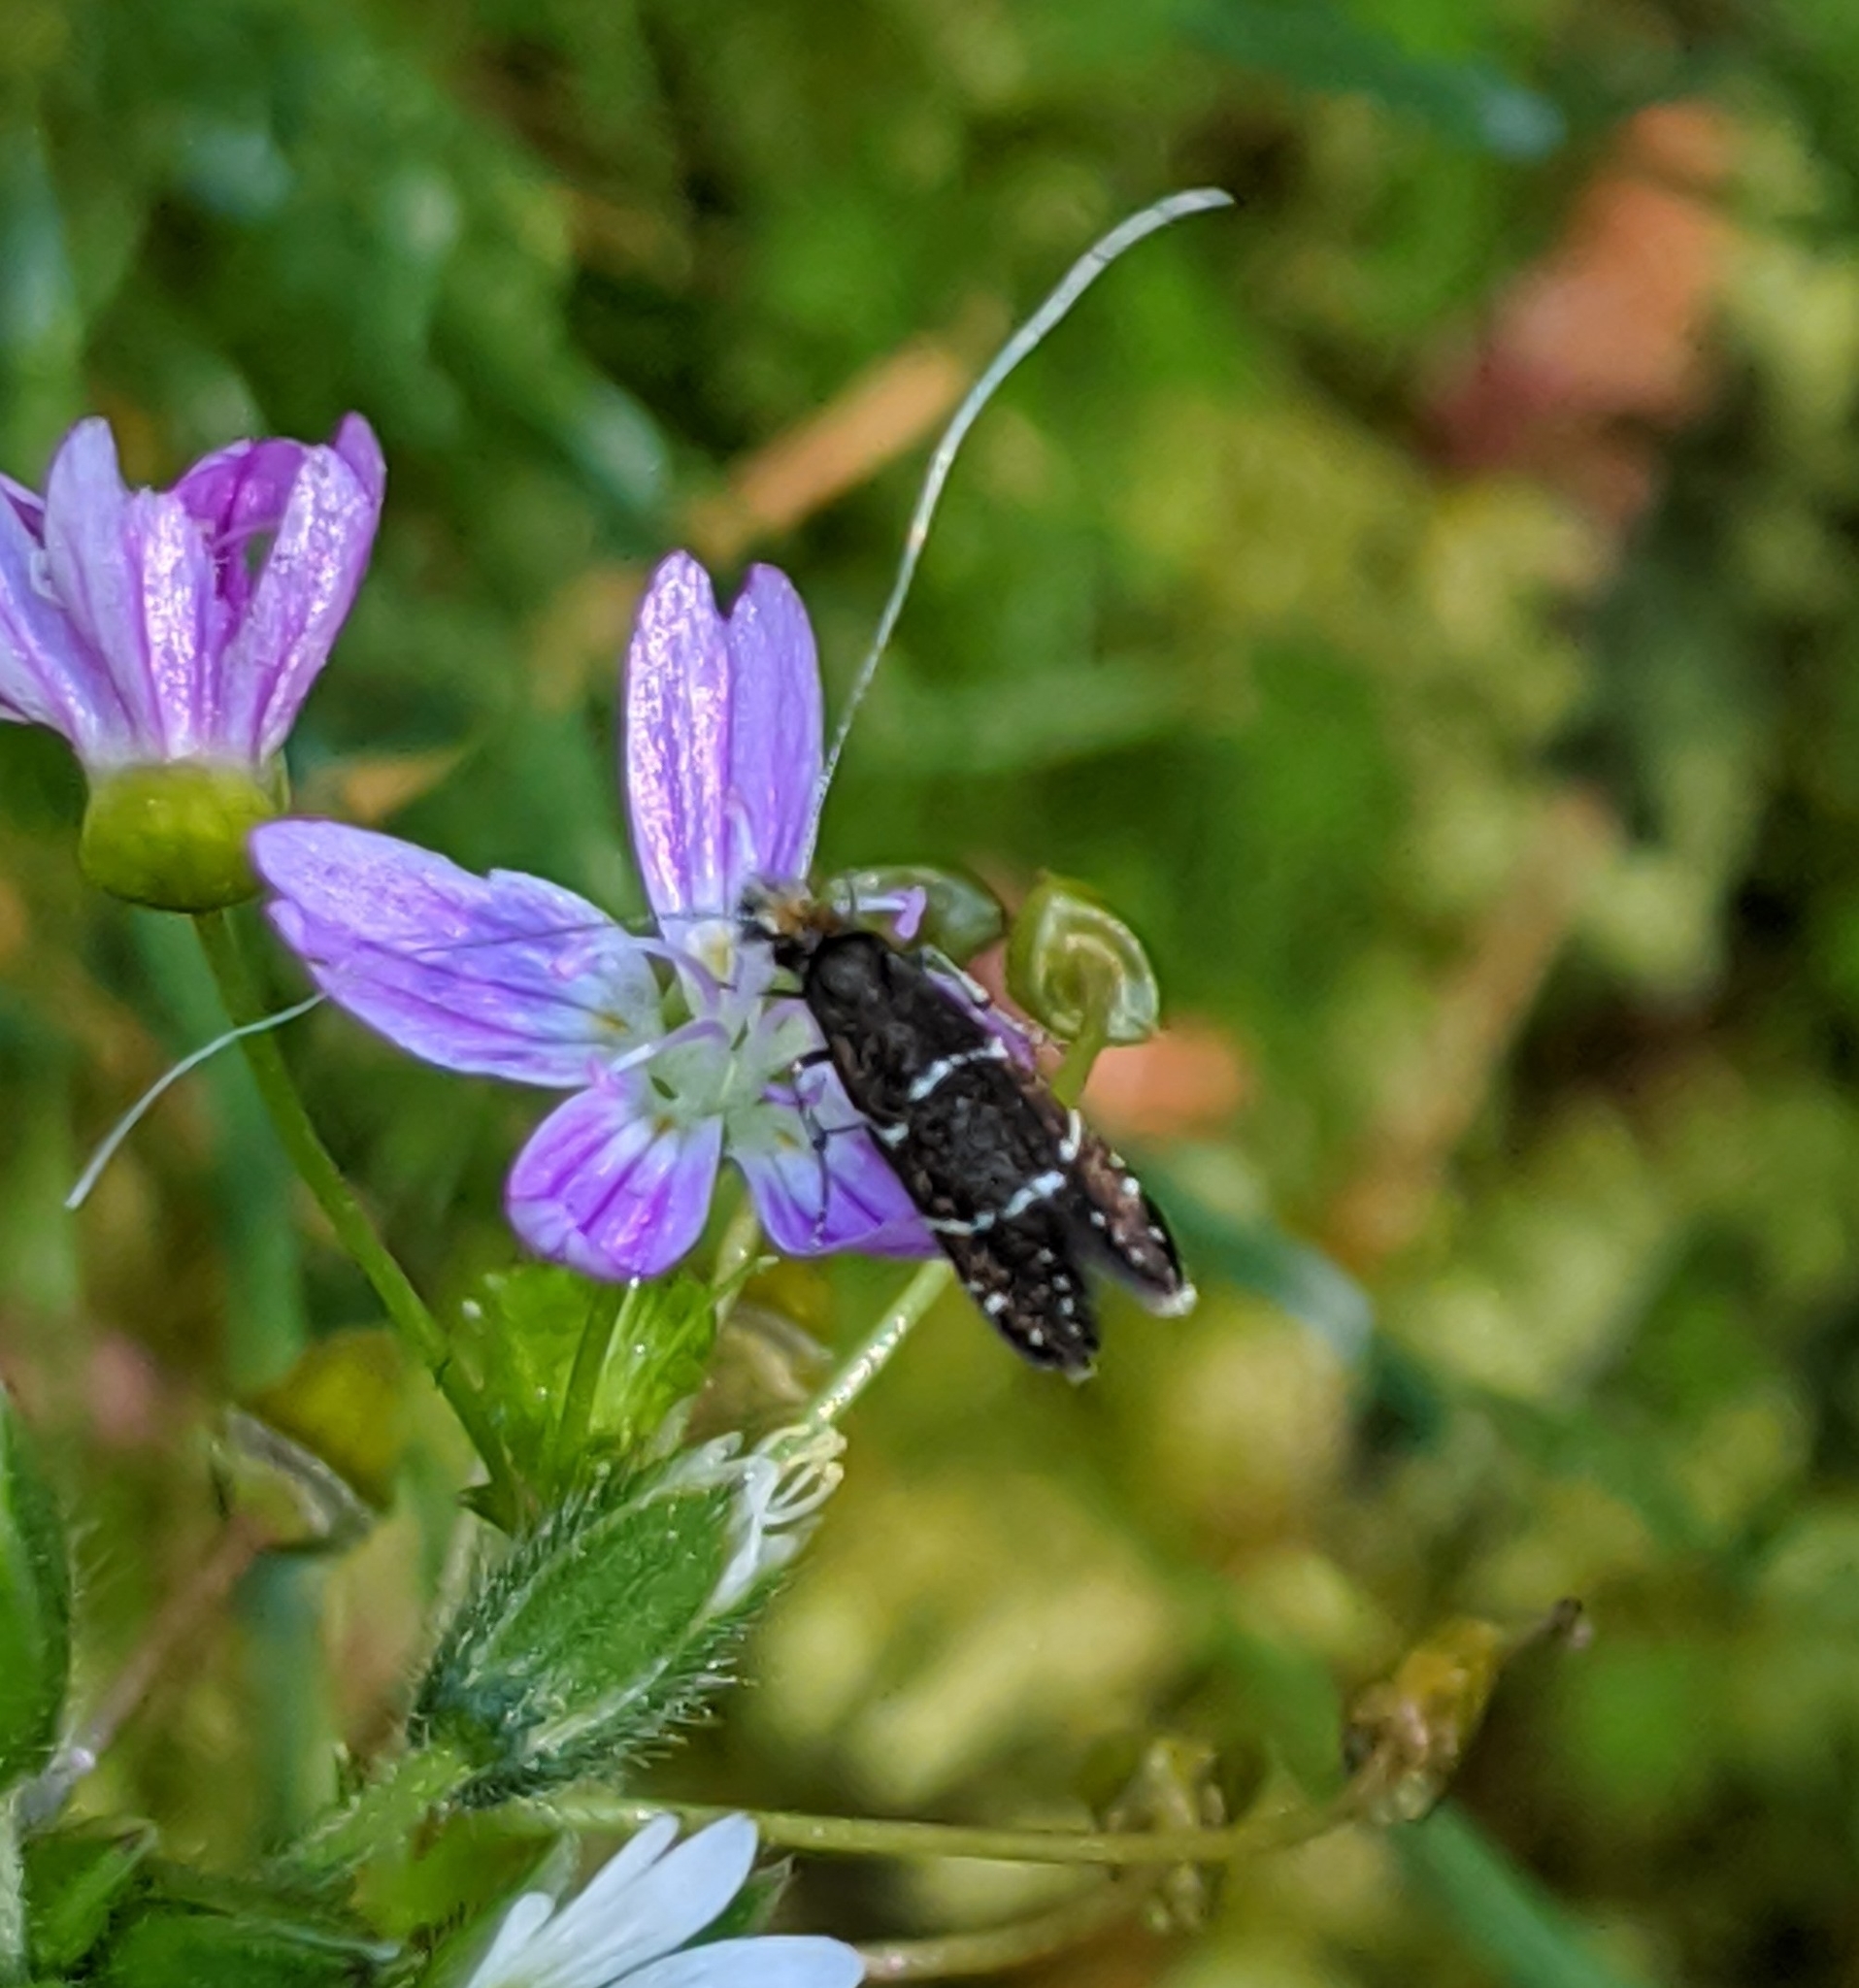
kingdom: Animalia
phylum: Arthropoda
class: Insecta
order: Lepidoptera
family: Adelidae
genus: Adela
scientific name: Adela septentrionella
